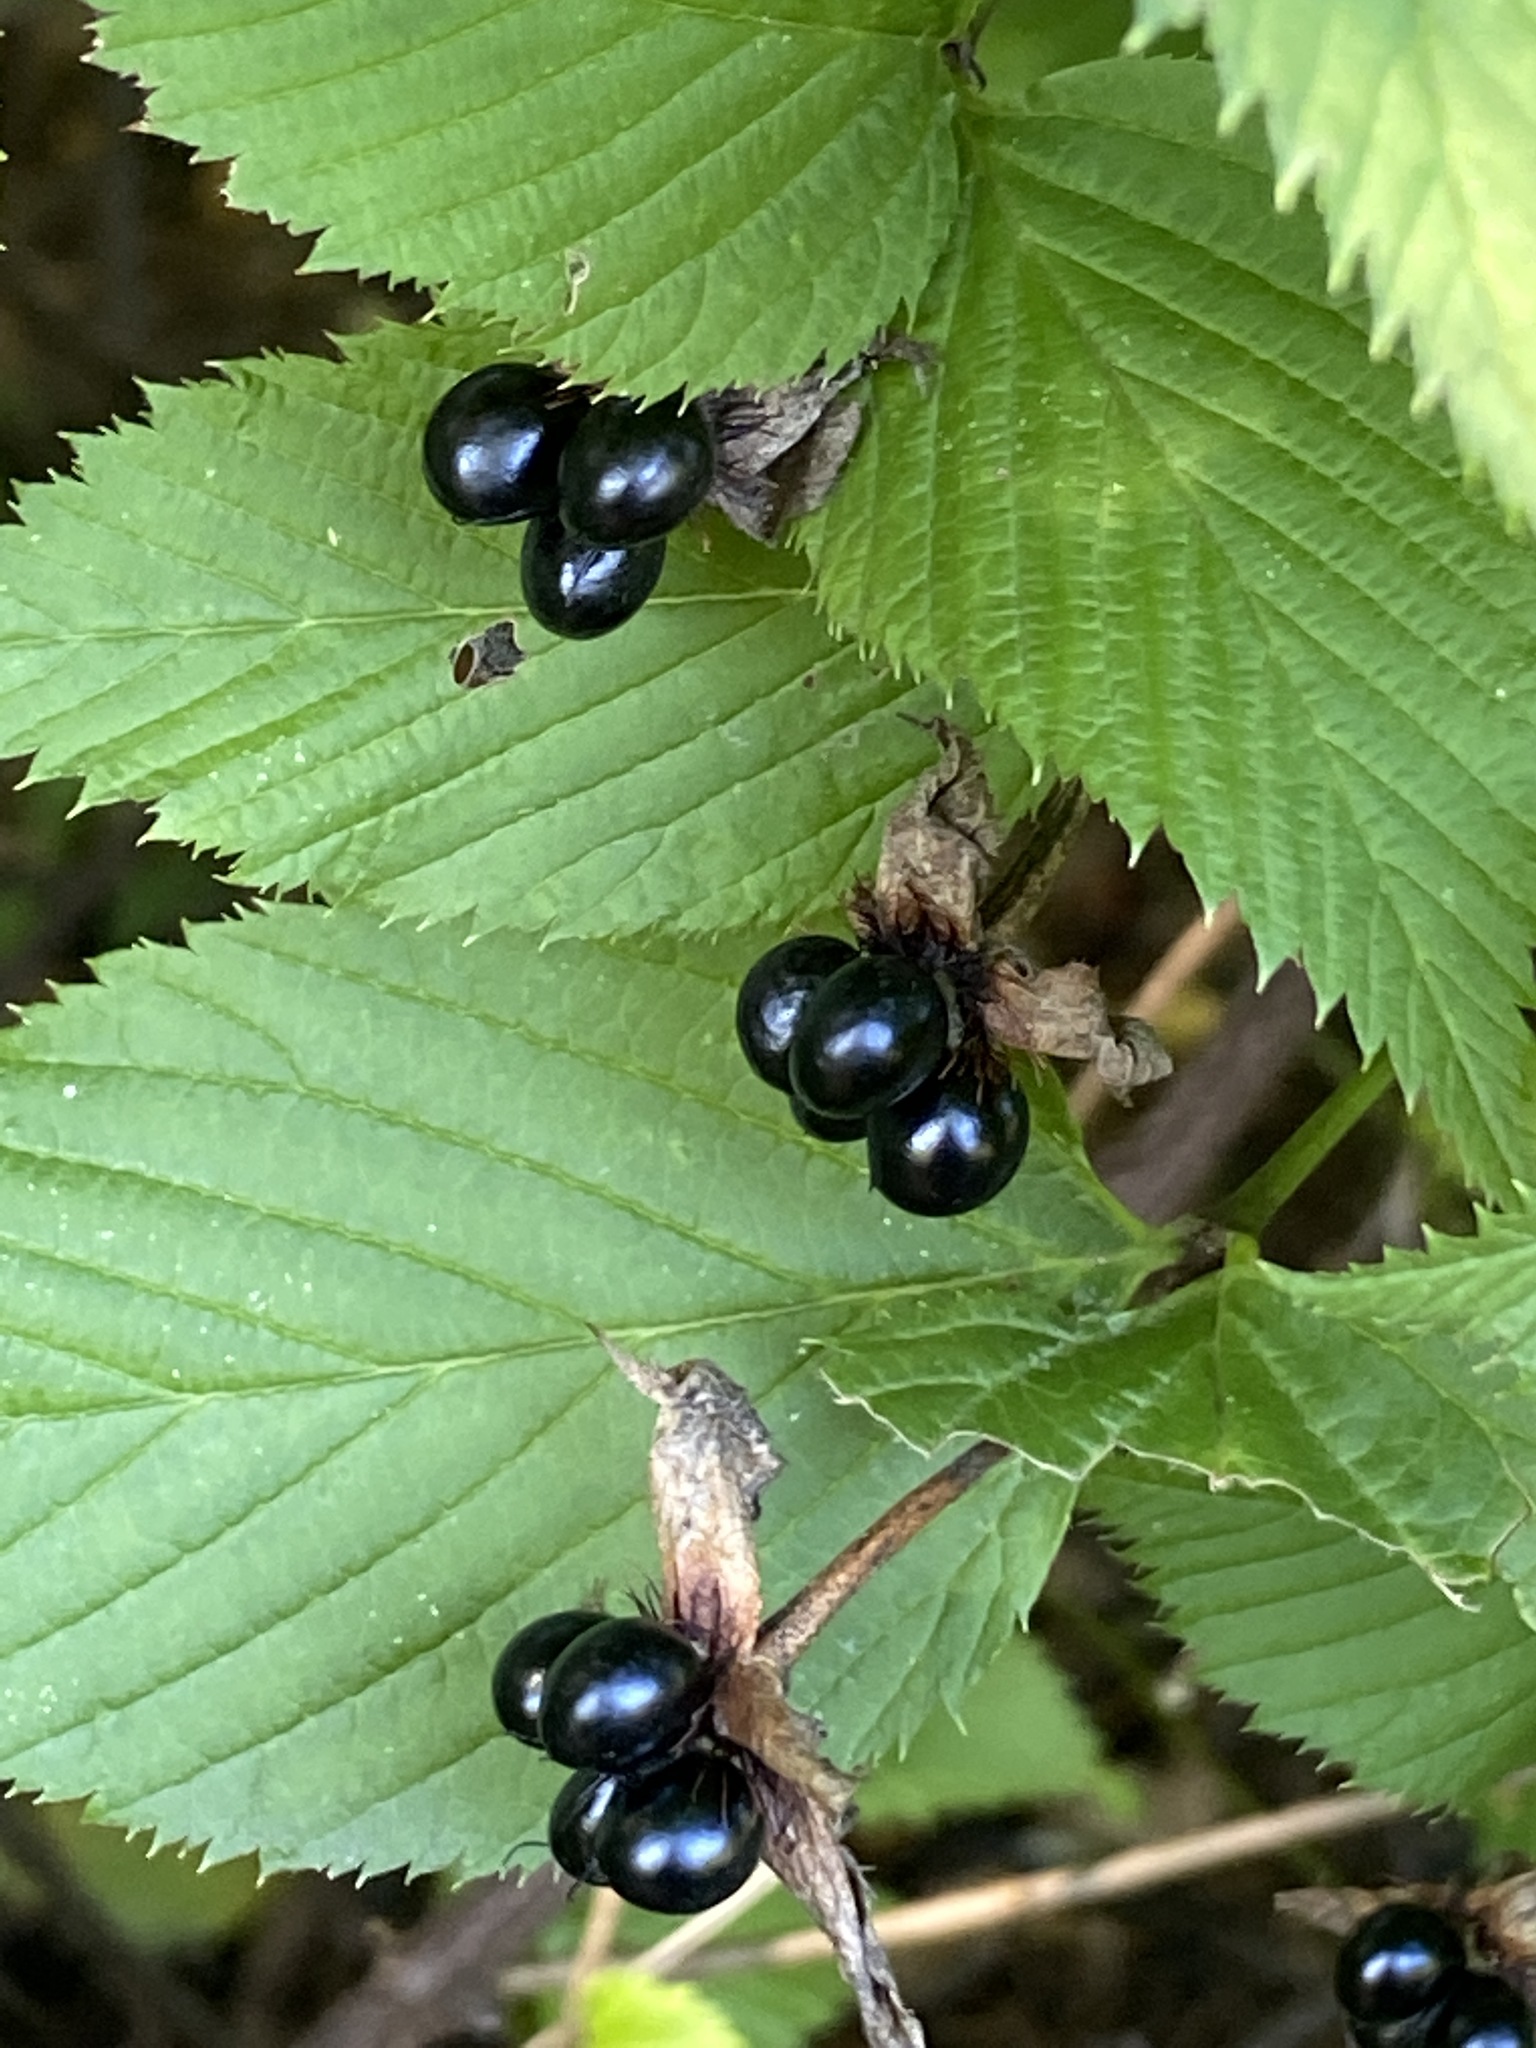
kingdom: Plantae
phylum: Tracheophyta
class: Magnoliopsida
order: Rosales
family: Rosaceae
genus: Rhodotypos
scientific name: Rhodotypos scandens
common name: Jetbead
